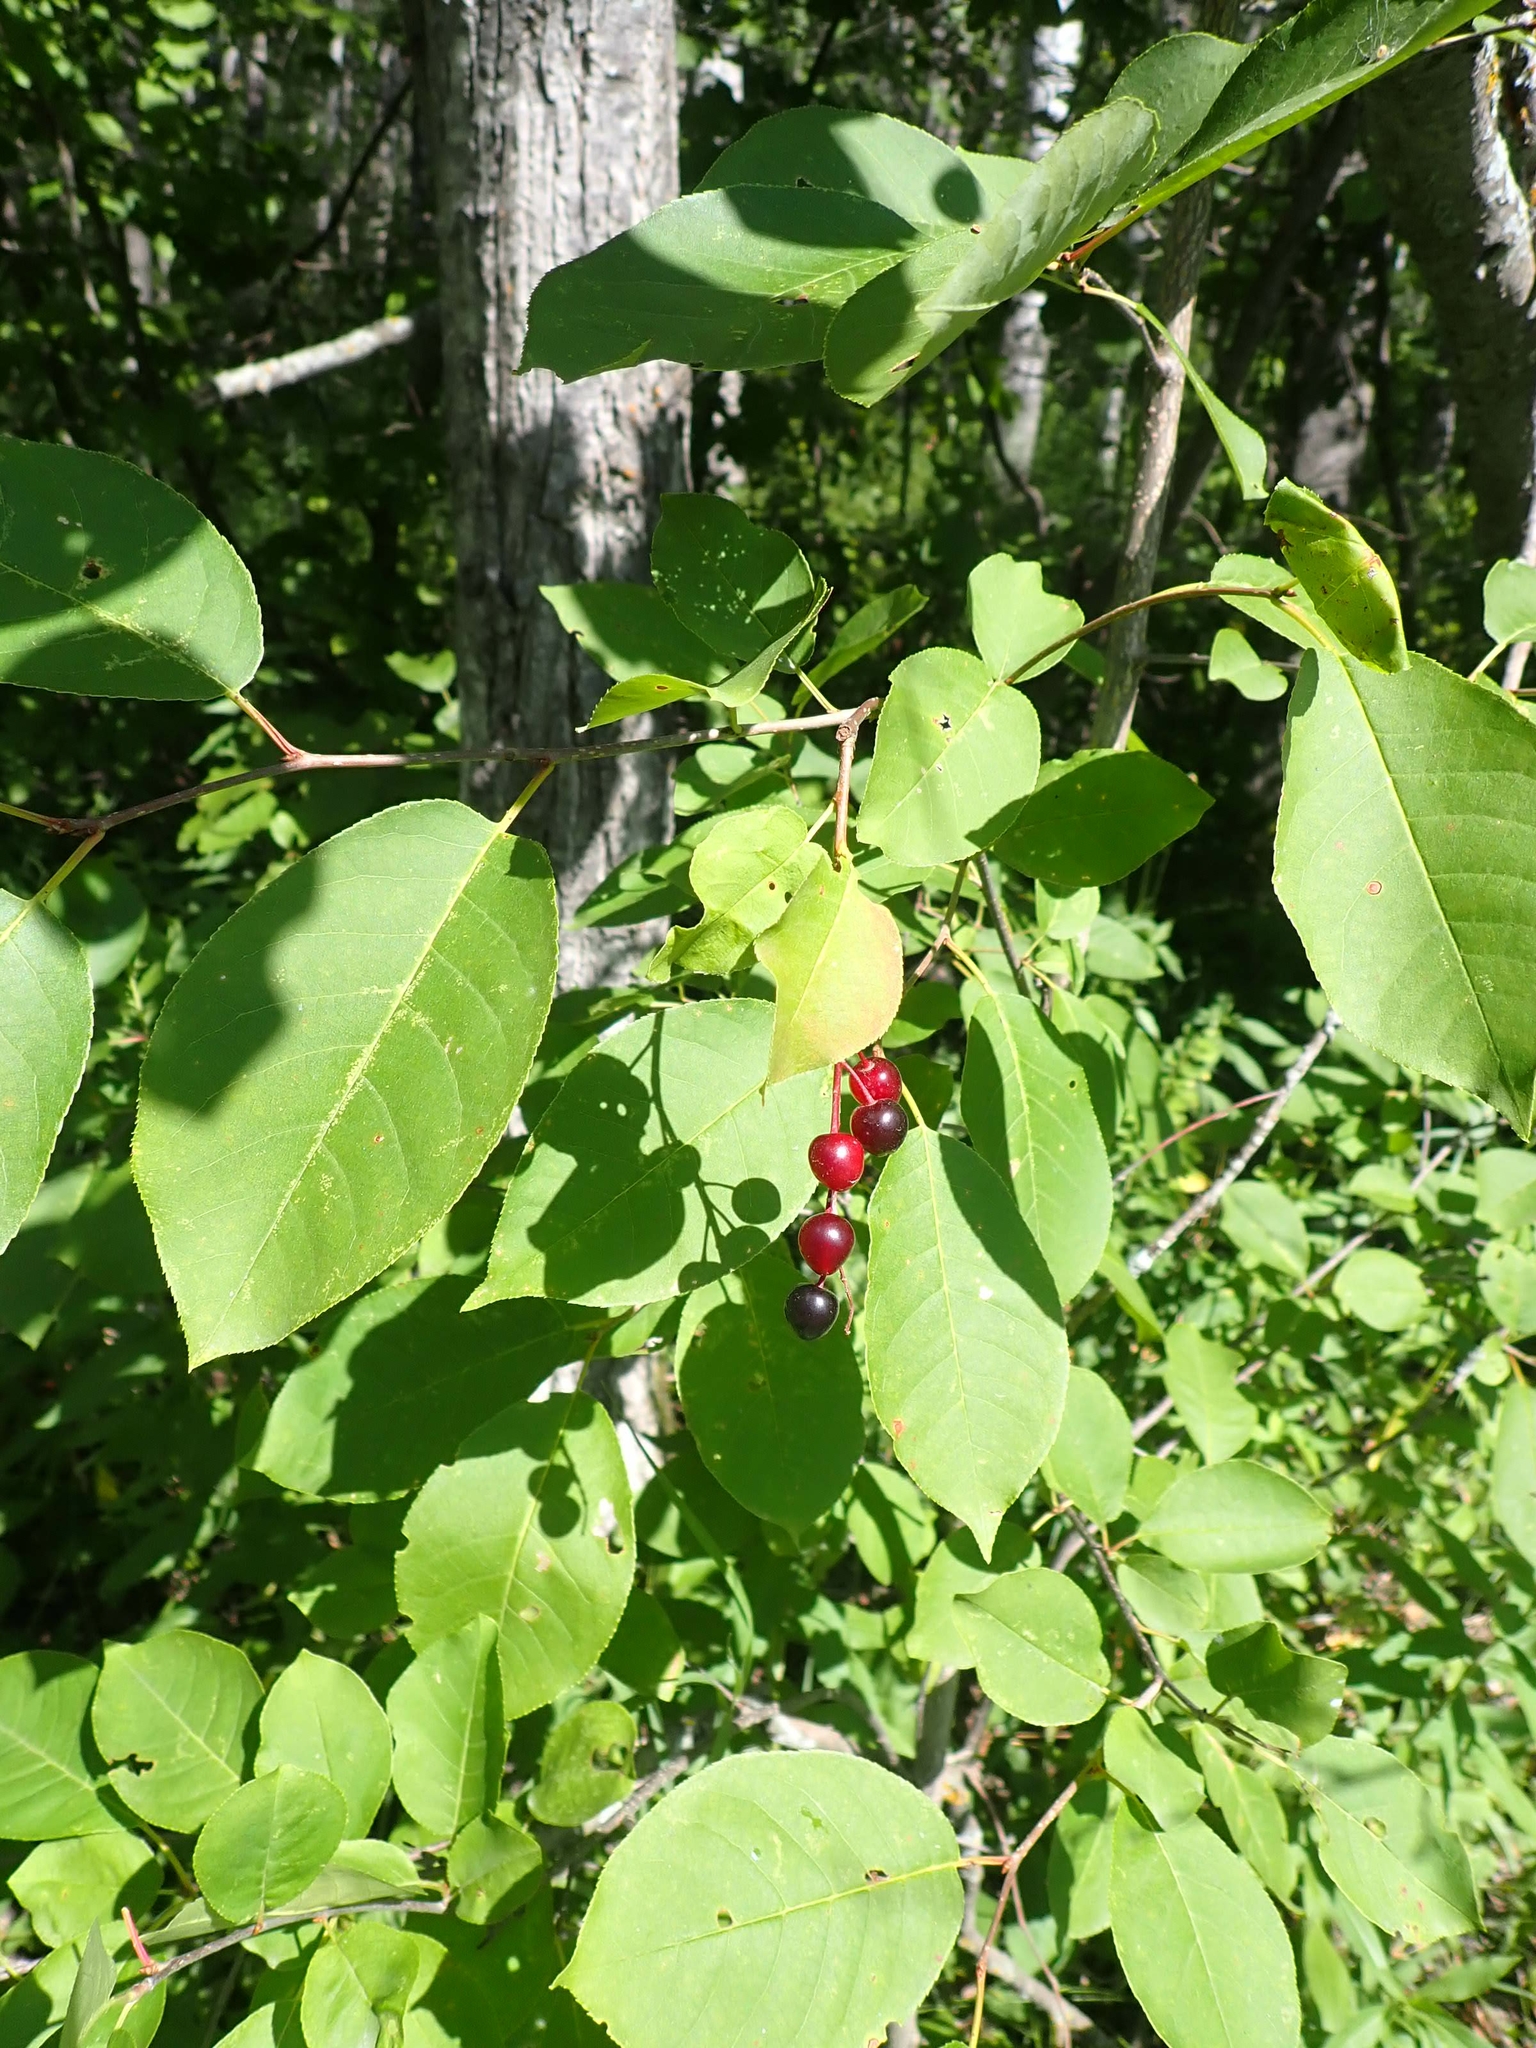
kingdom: Plantae
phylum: Tracheophyta
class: Magnoliopsida
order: Rosales
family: Rosaceae
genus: Prunus
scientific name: Prunus virginiana
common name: Chokecherry
